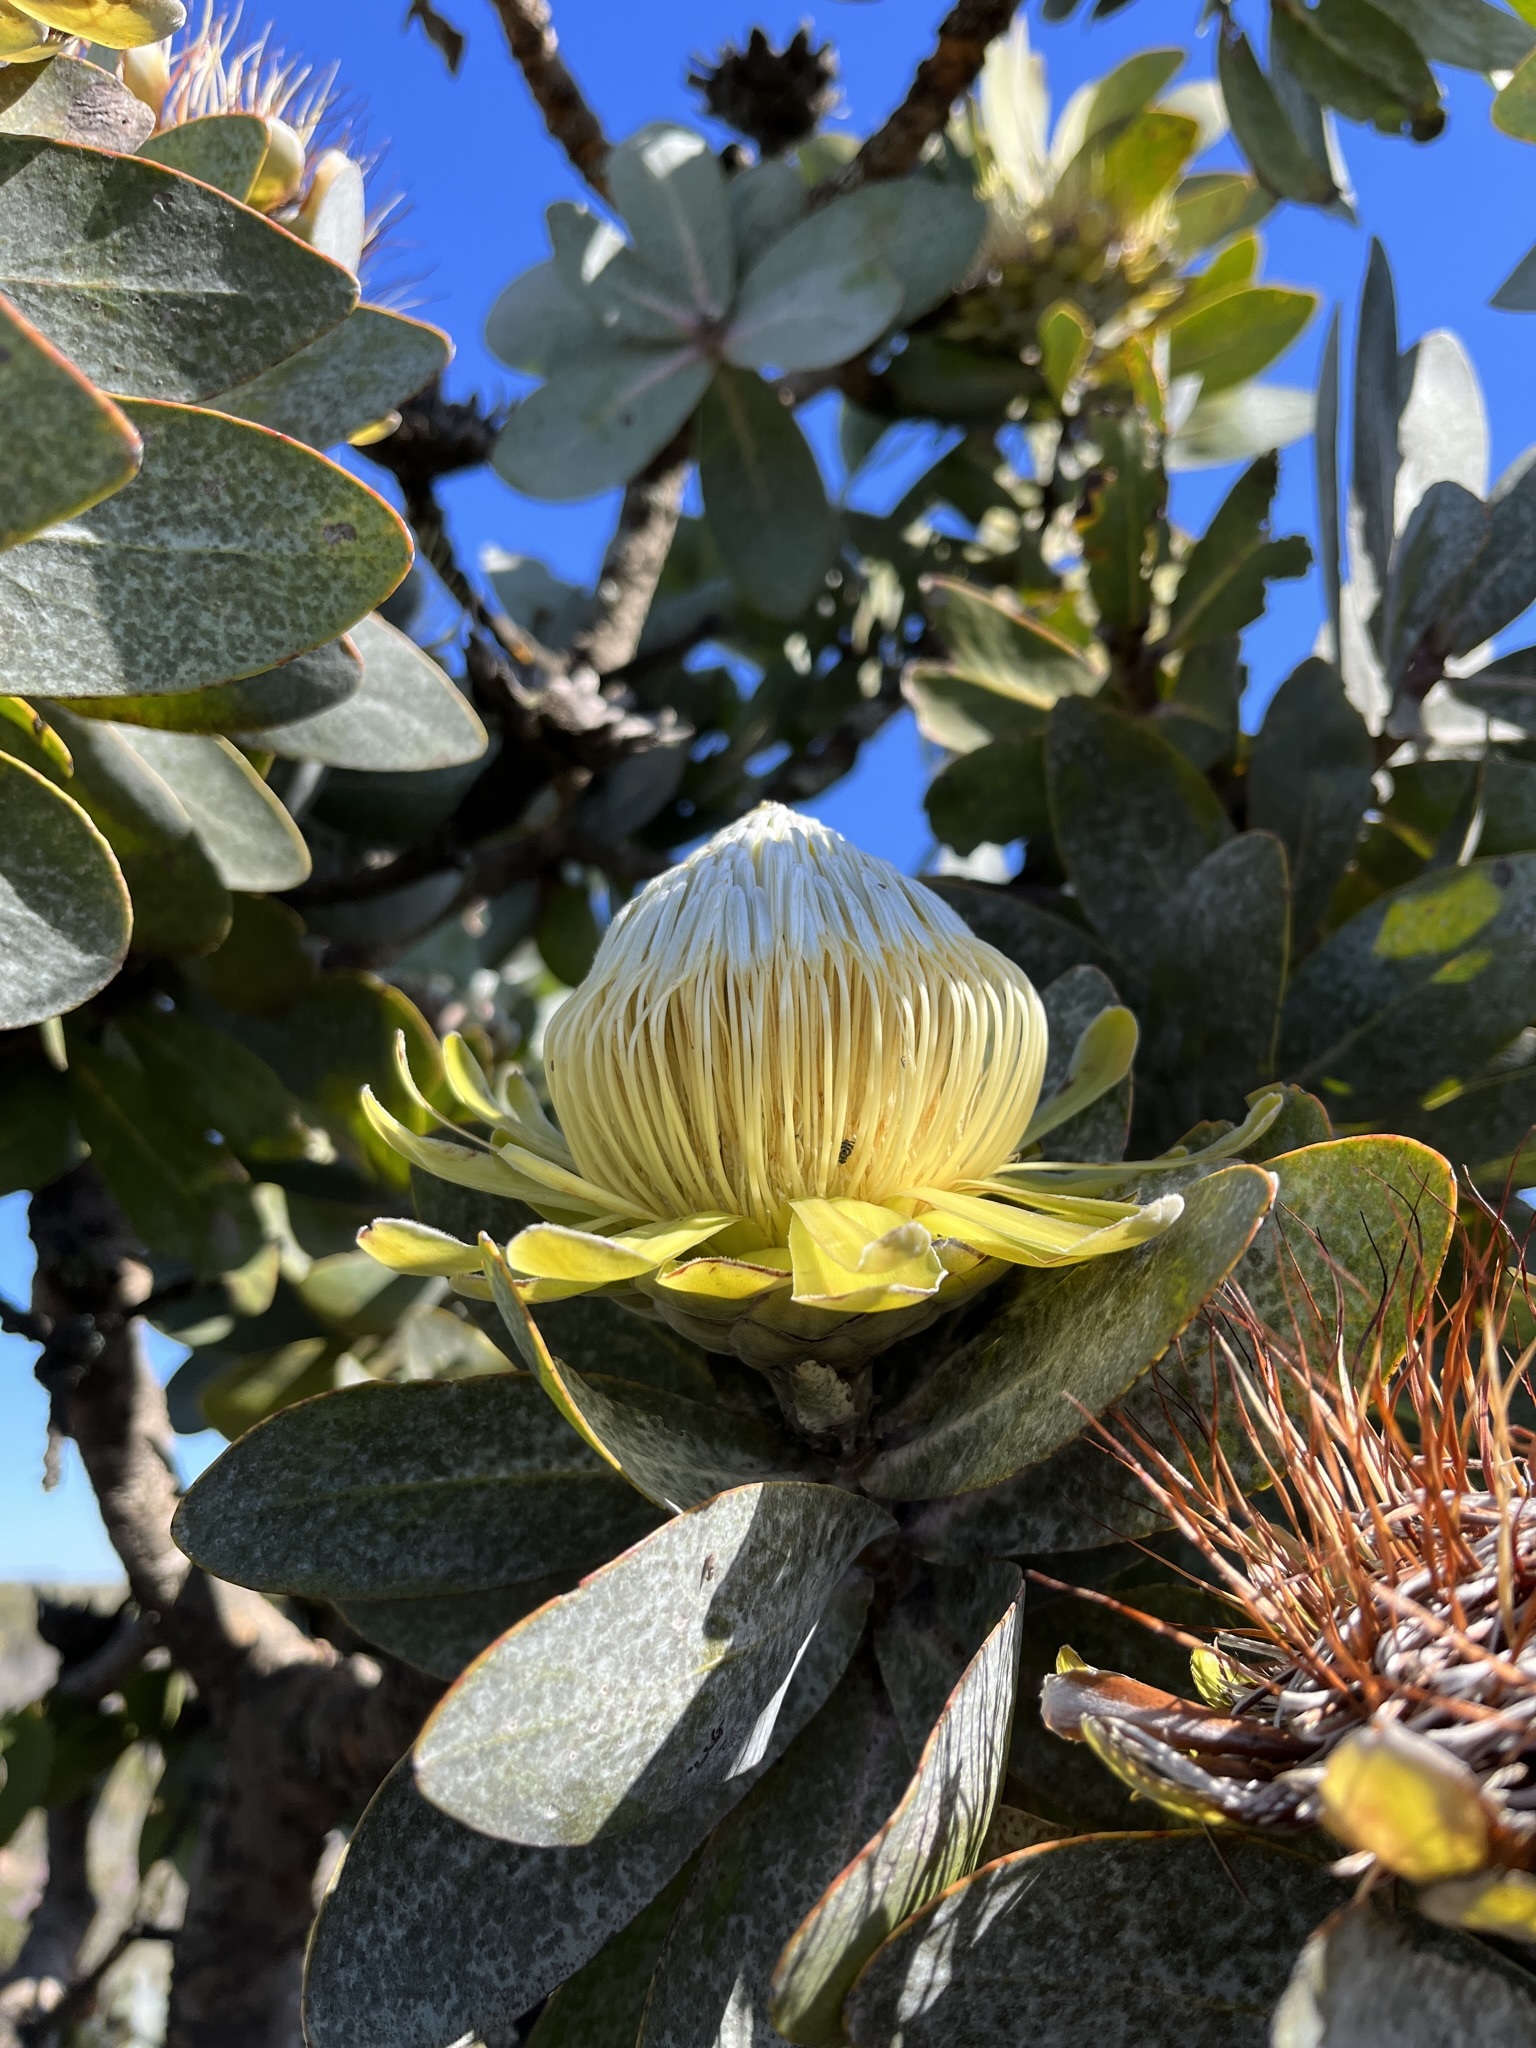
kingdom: Plantae
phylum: Tracheophyta
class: Magnoliopsida
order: Proteales
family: Proteaceae
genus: Protea
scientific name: Protea nitida
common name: Tree protea
